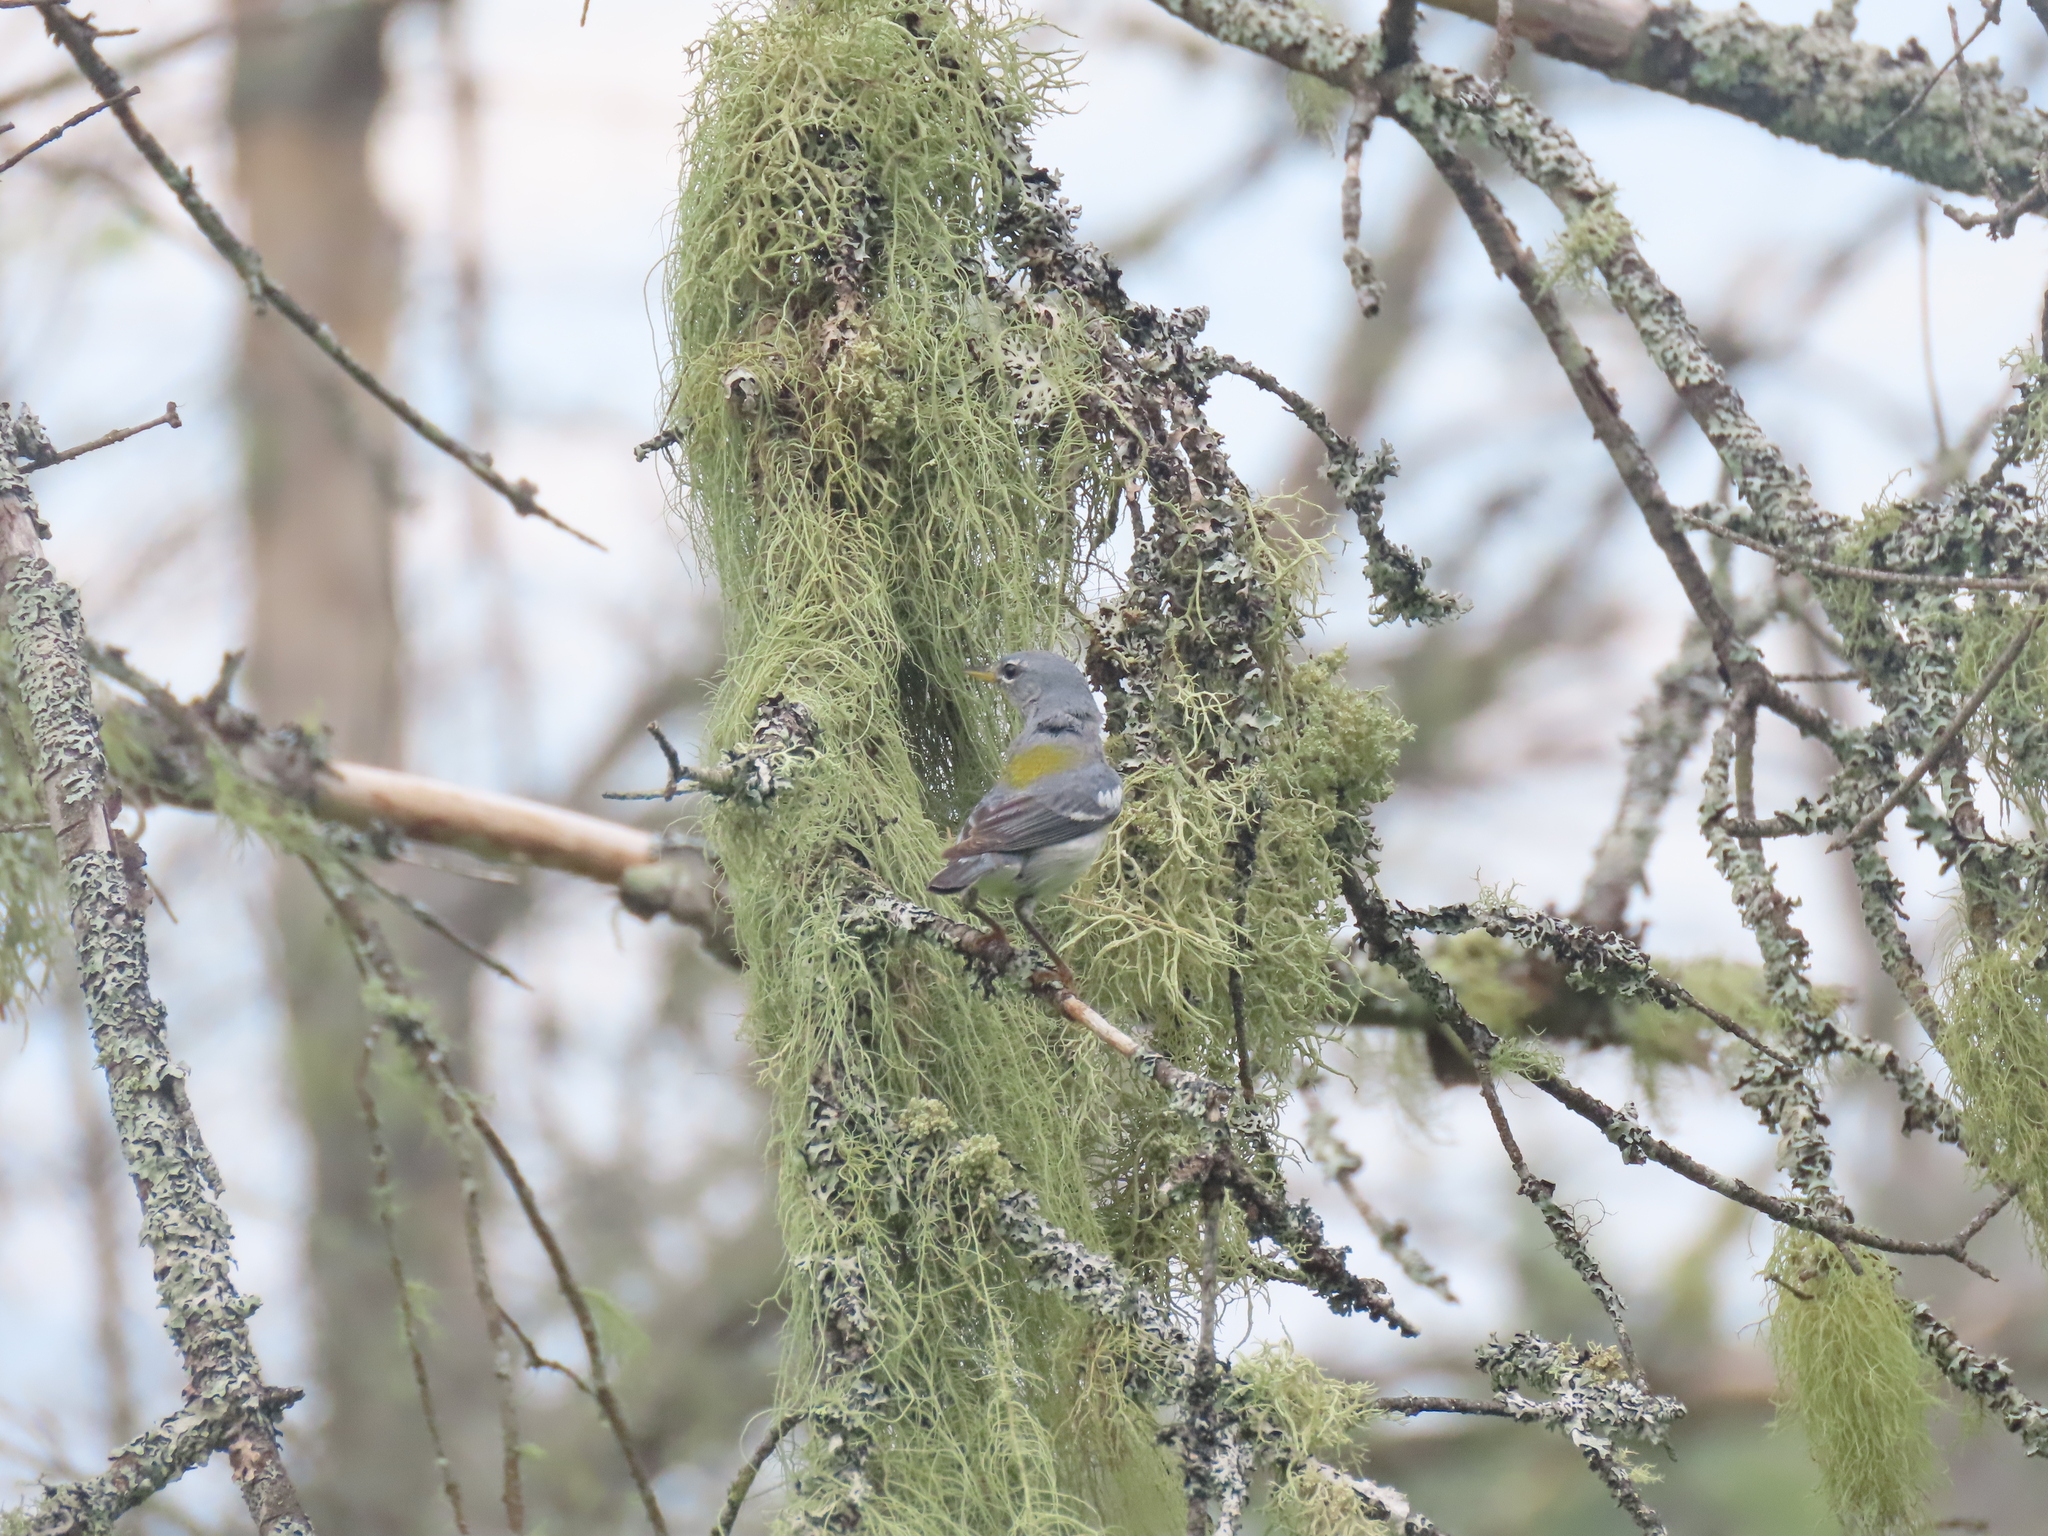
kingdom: Animalia
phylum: Chordata
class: Aves
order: Passeriformes
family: Parulidae
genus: Setophaga
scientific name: Setophaga americana
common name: Northern parula
